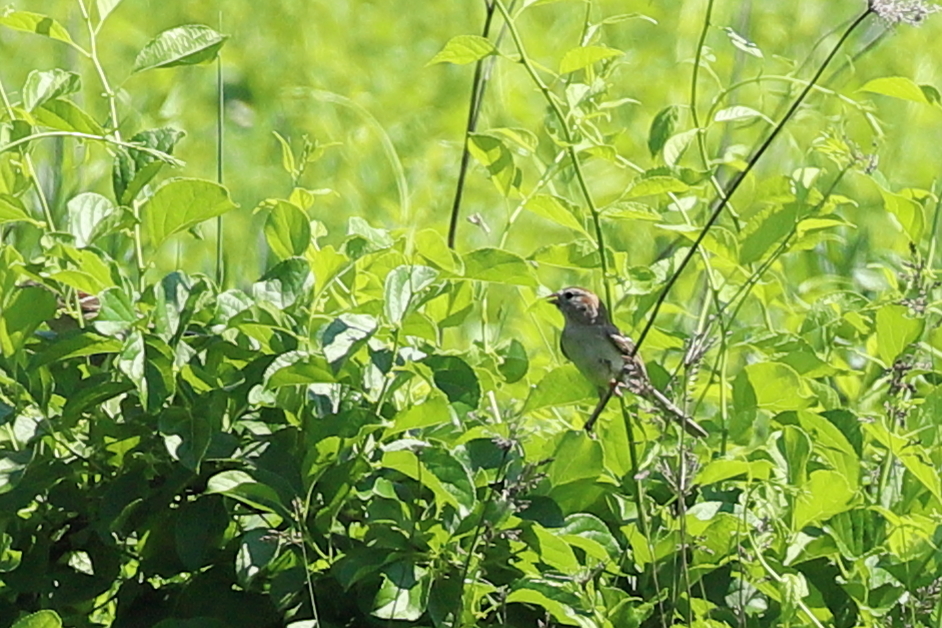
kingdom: Animalia
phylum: Chordata
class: Aves
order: Passeriformes
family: Passerellidae
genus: Spizella
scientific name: Spizella pusilla
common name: Field sparrow
